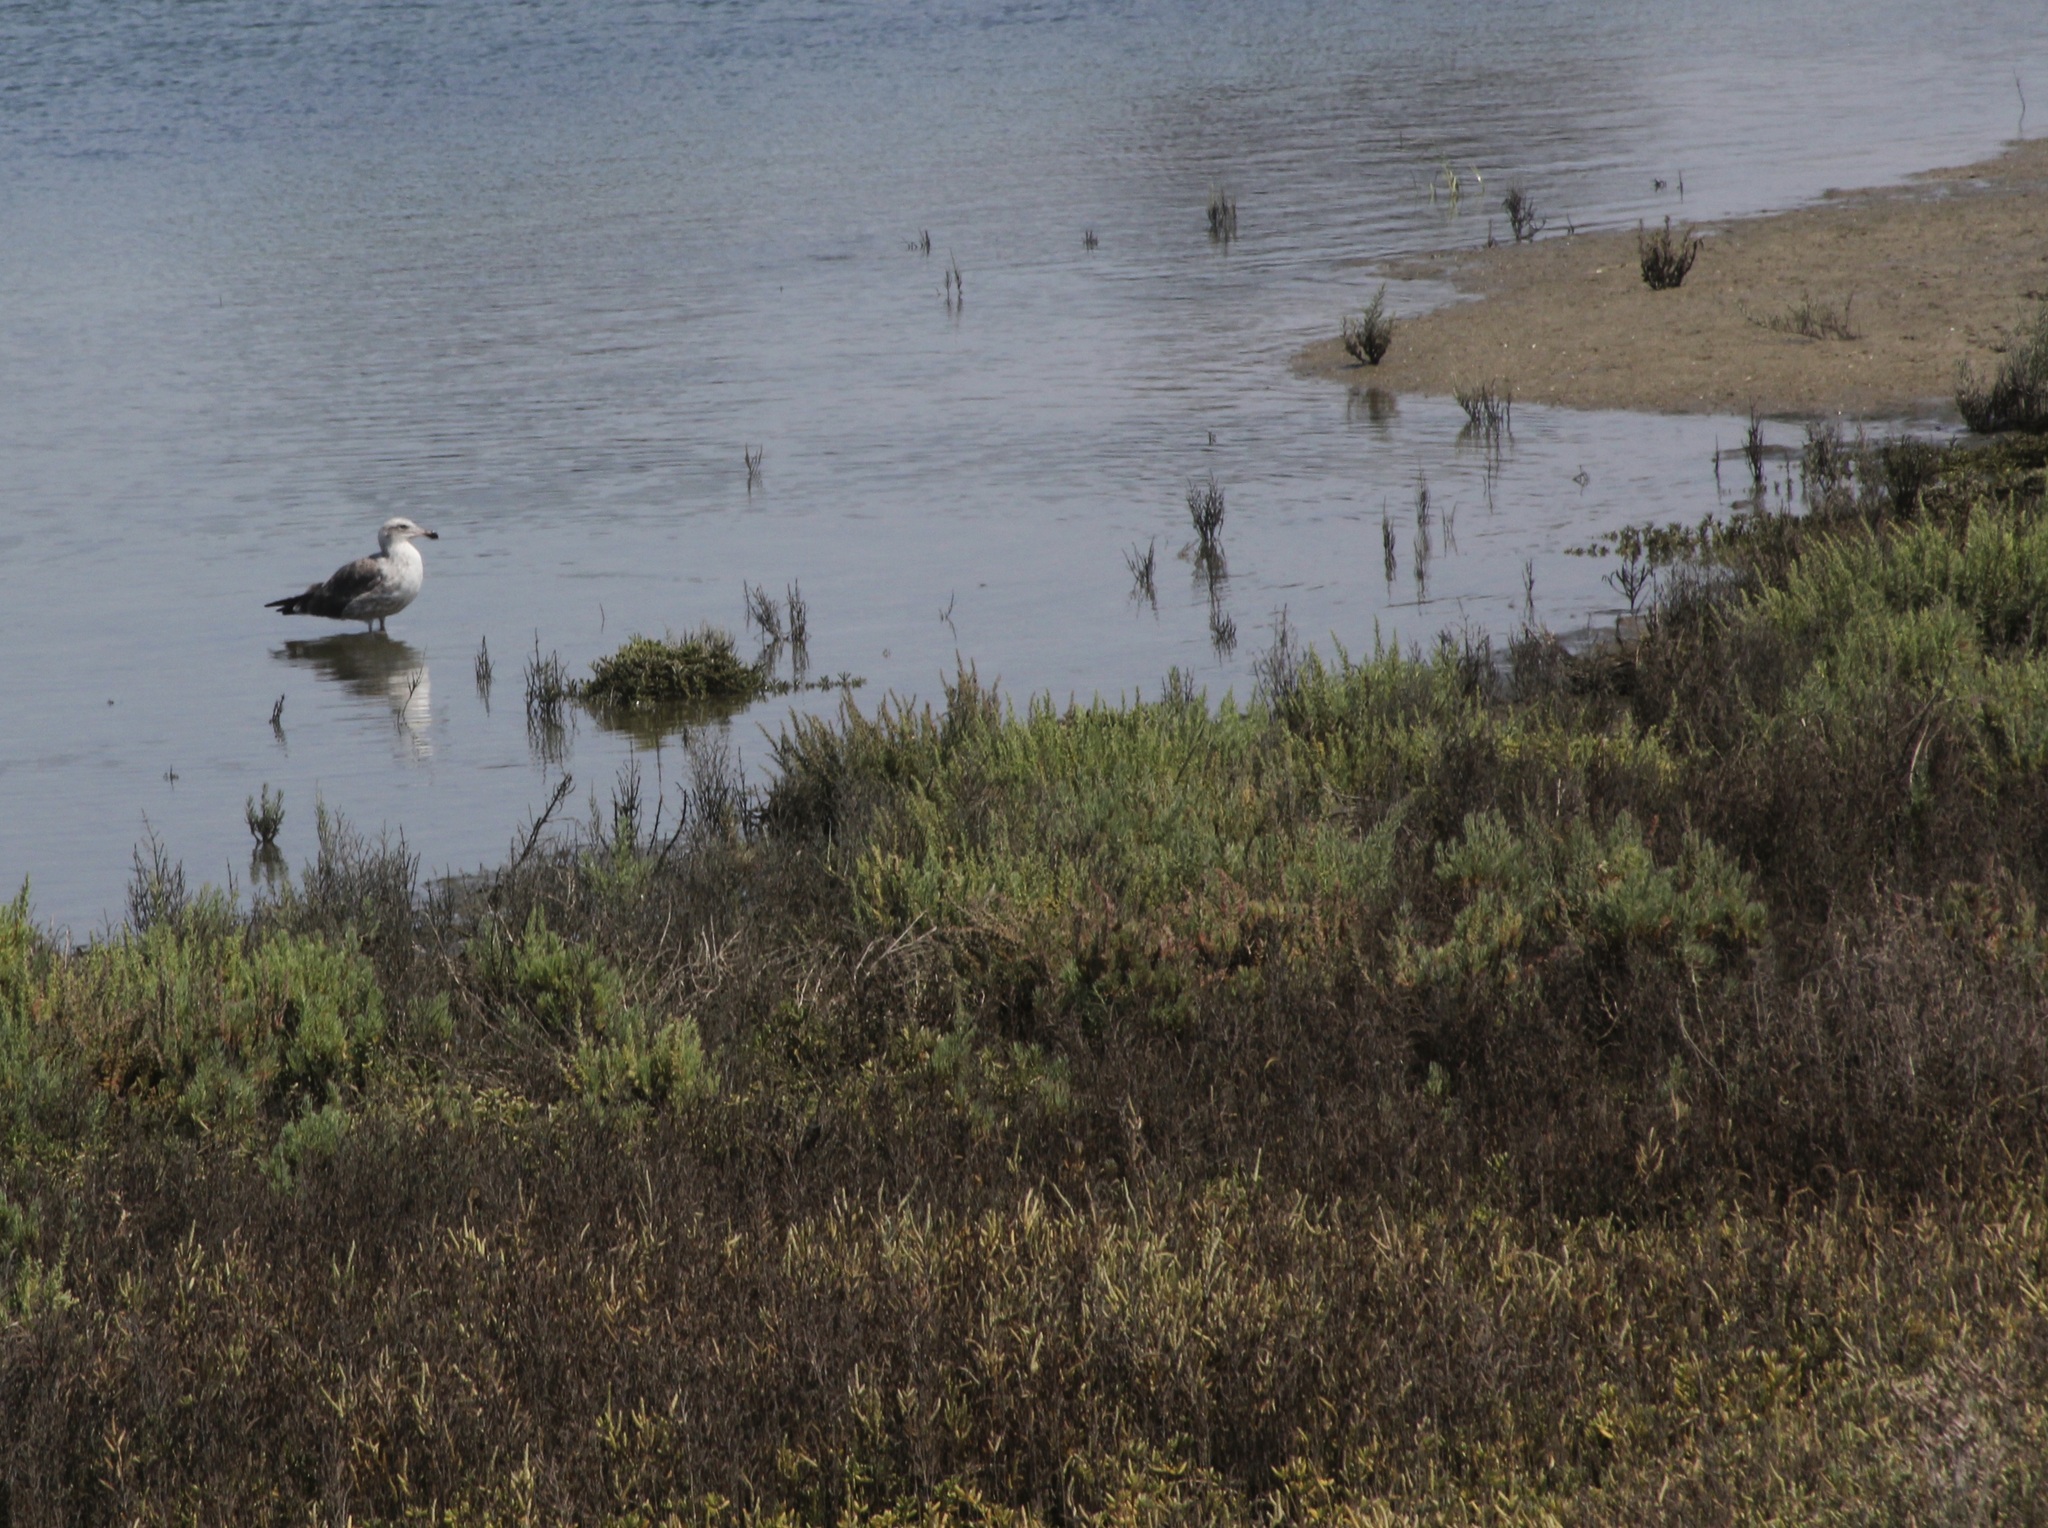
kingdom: Animalia
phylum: Chordata
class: Aves
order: Charadriiformes
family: Laridae
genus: Larus
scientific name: Larus occidentalis
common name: Western gull
